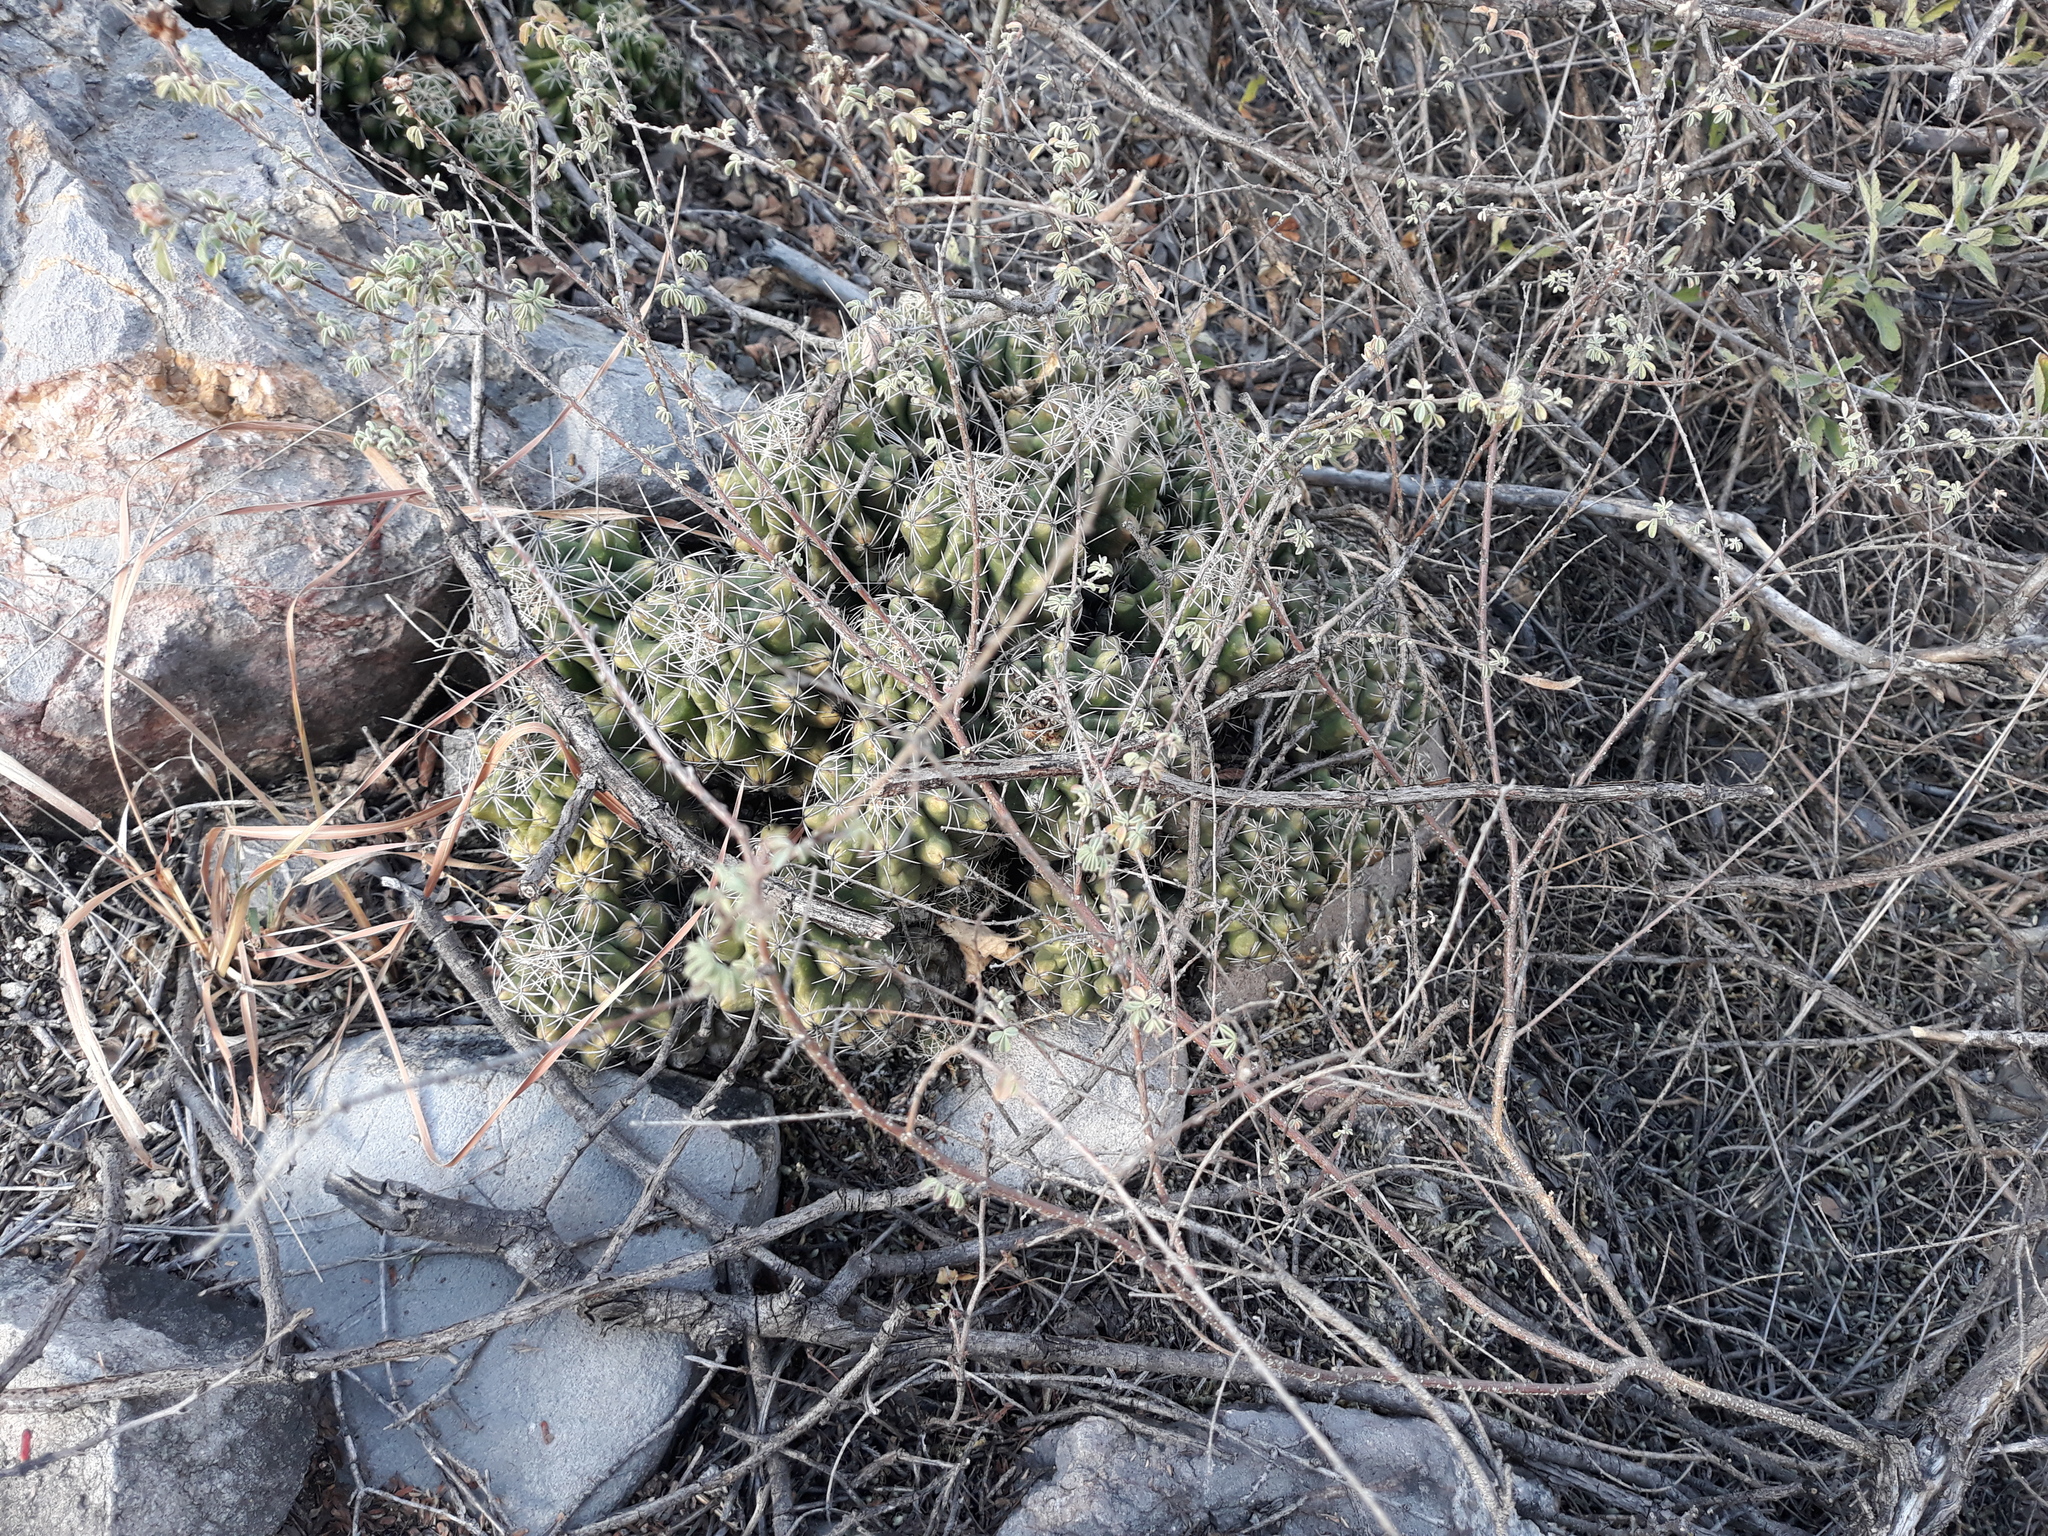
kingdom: Plantae
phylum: Tracheophyta
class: Magnoliopsida
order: Caryophyllales
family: Cactaceae
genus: Thelocactus
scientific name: Thelocactus leucacanthus
